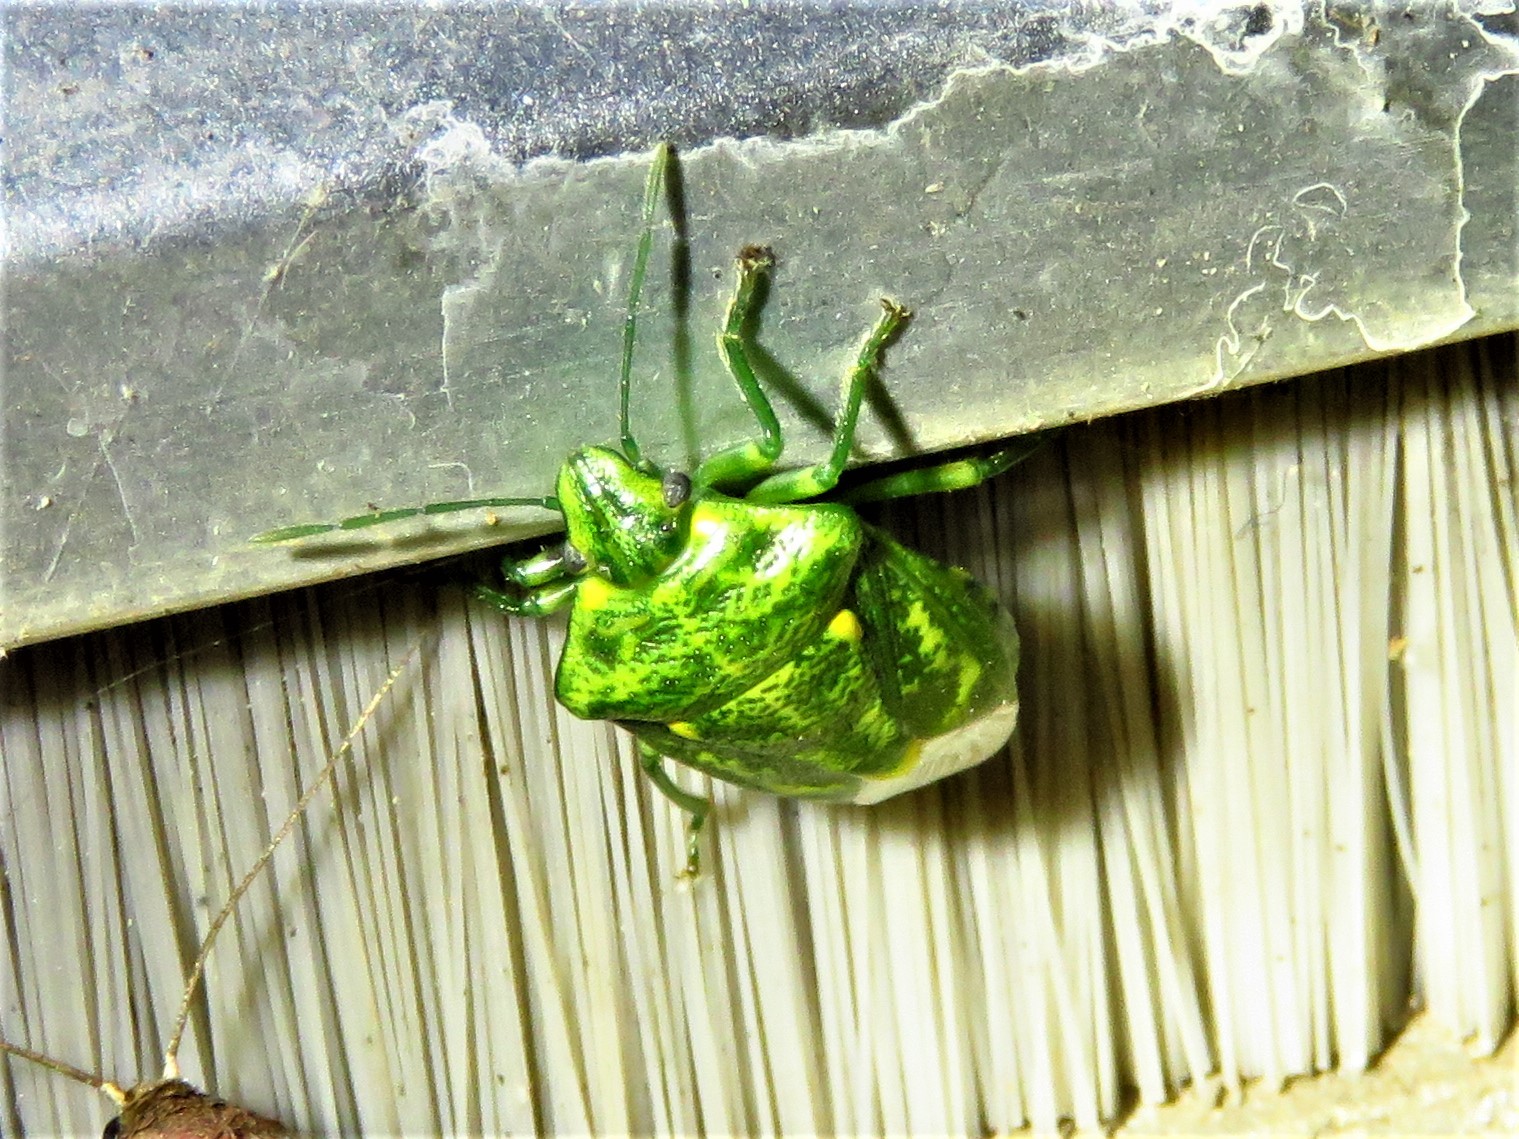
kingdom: Animalia
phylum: Arthropoda
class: Insecta
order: Hemiptera
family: Pentatomidae
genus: Banasa
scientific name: Banasa euchlora
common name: Cedar berry bug
